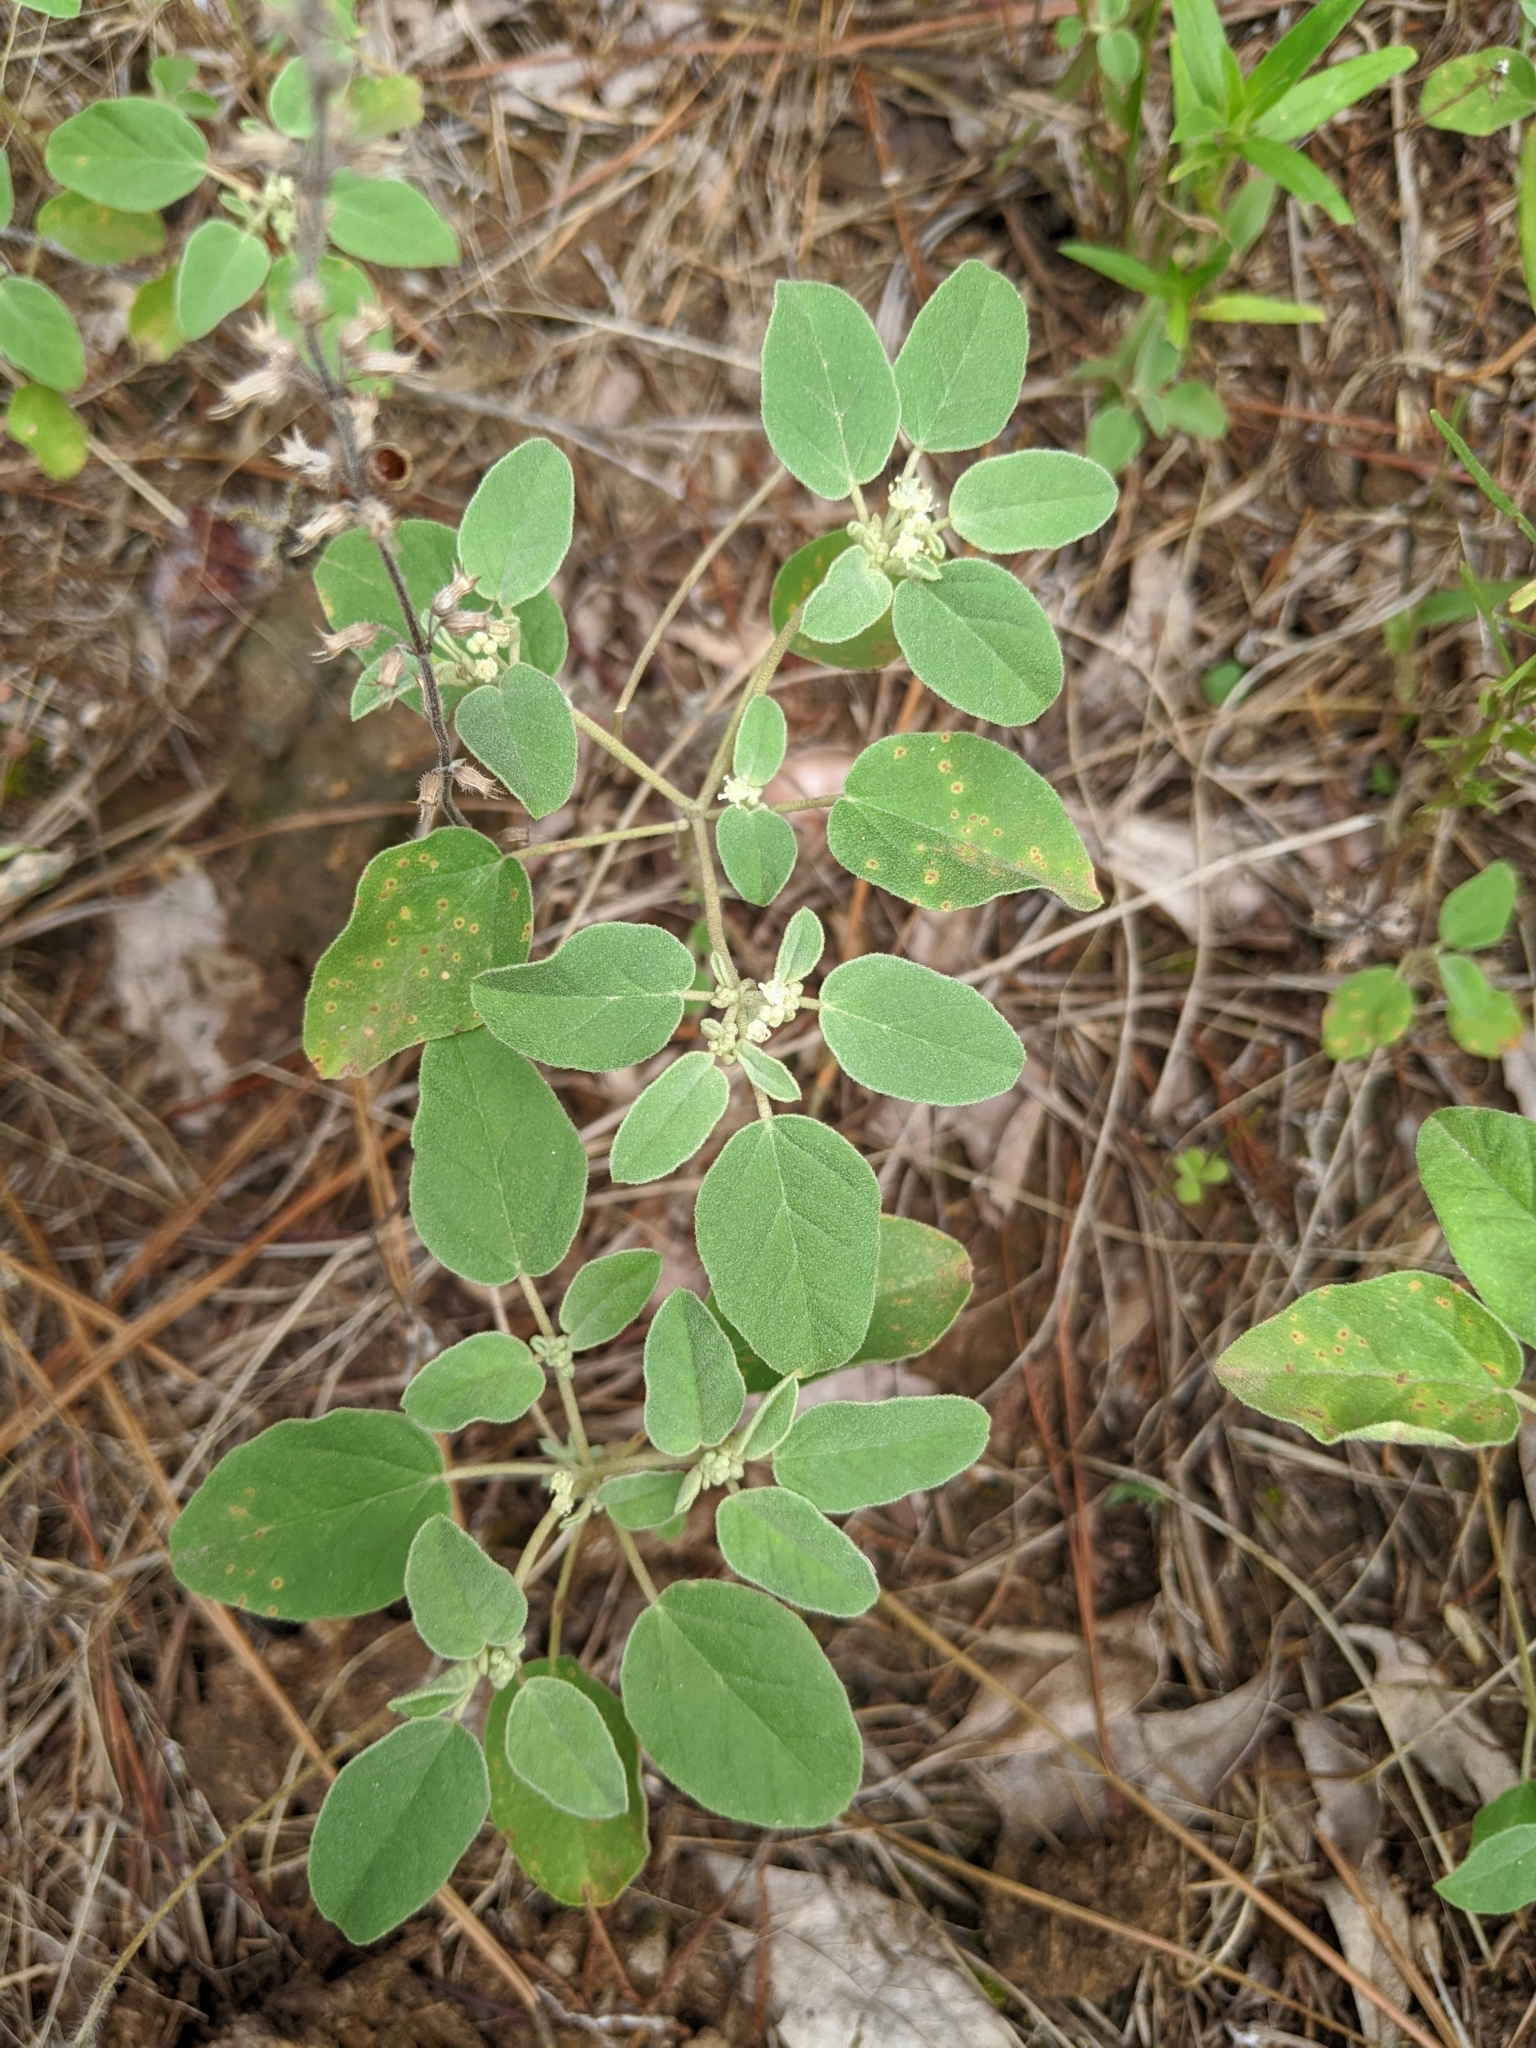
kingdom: Plantae
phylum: Tracheophyta
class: Magnoliopsida
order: Malpighiales
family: Euphorbiaceae
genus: Croton
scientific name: Croton lindheimerianus
